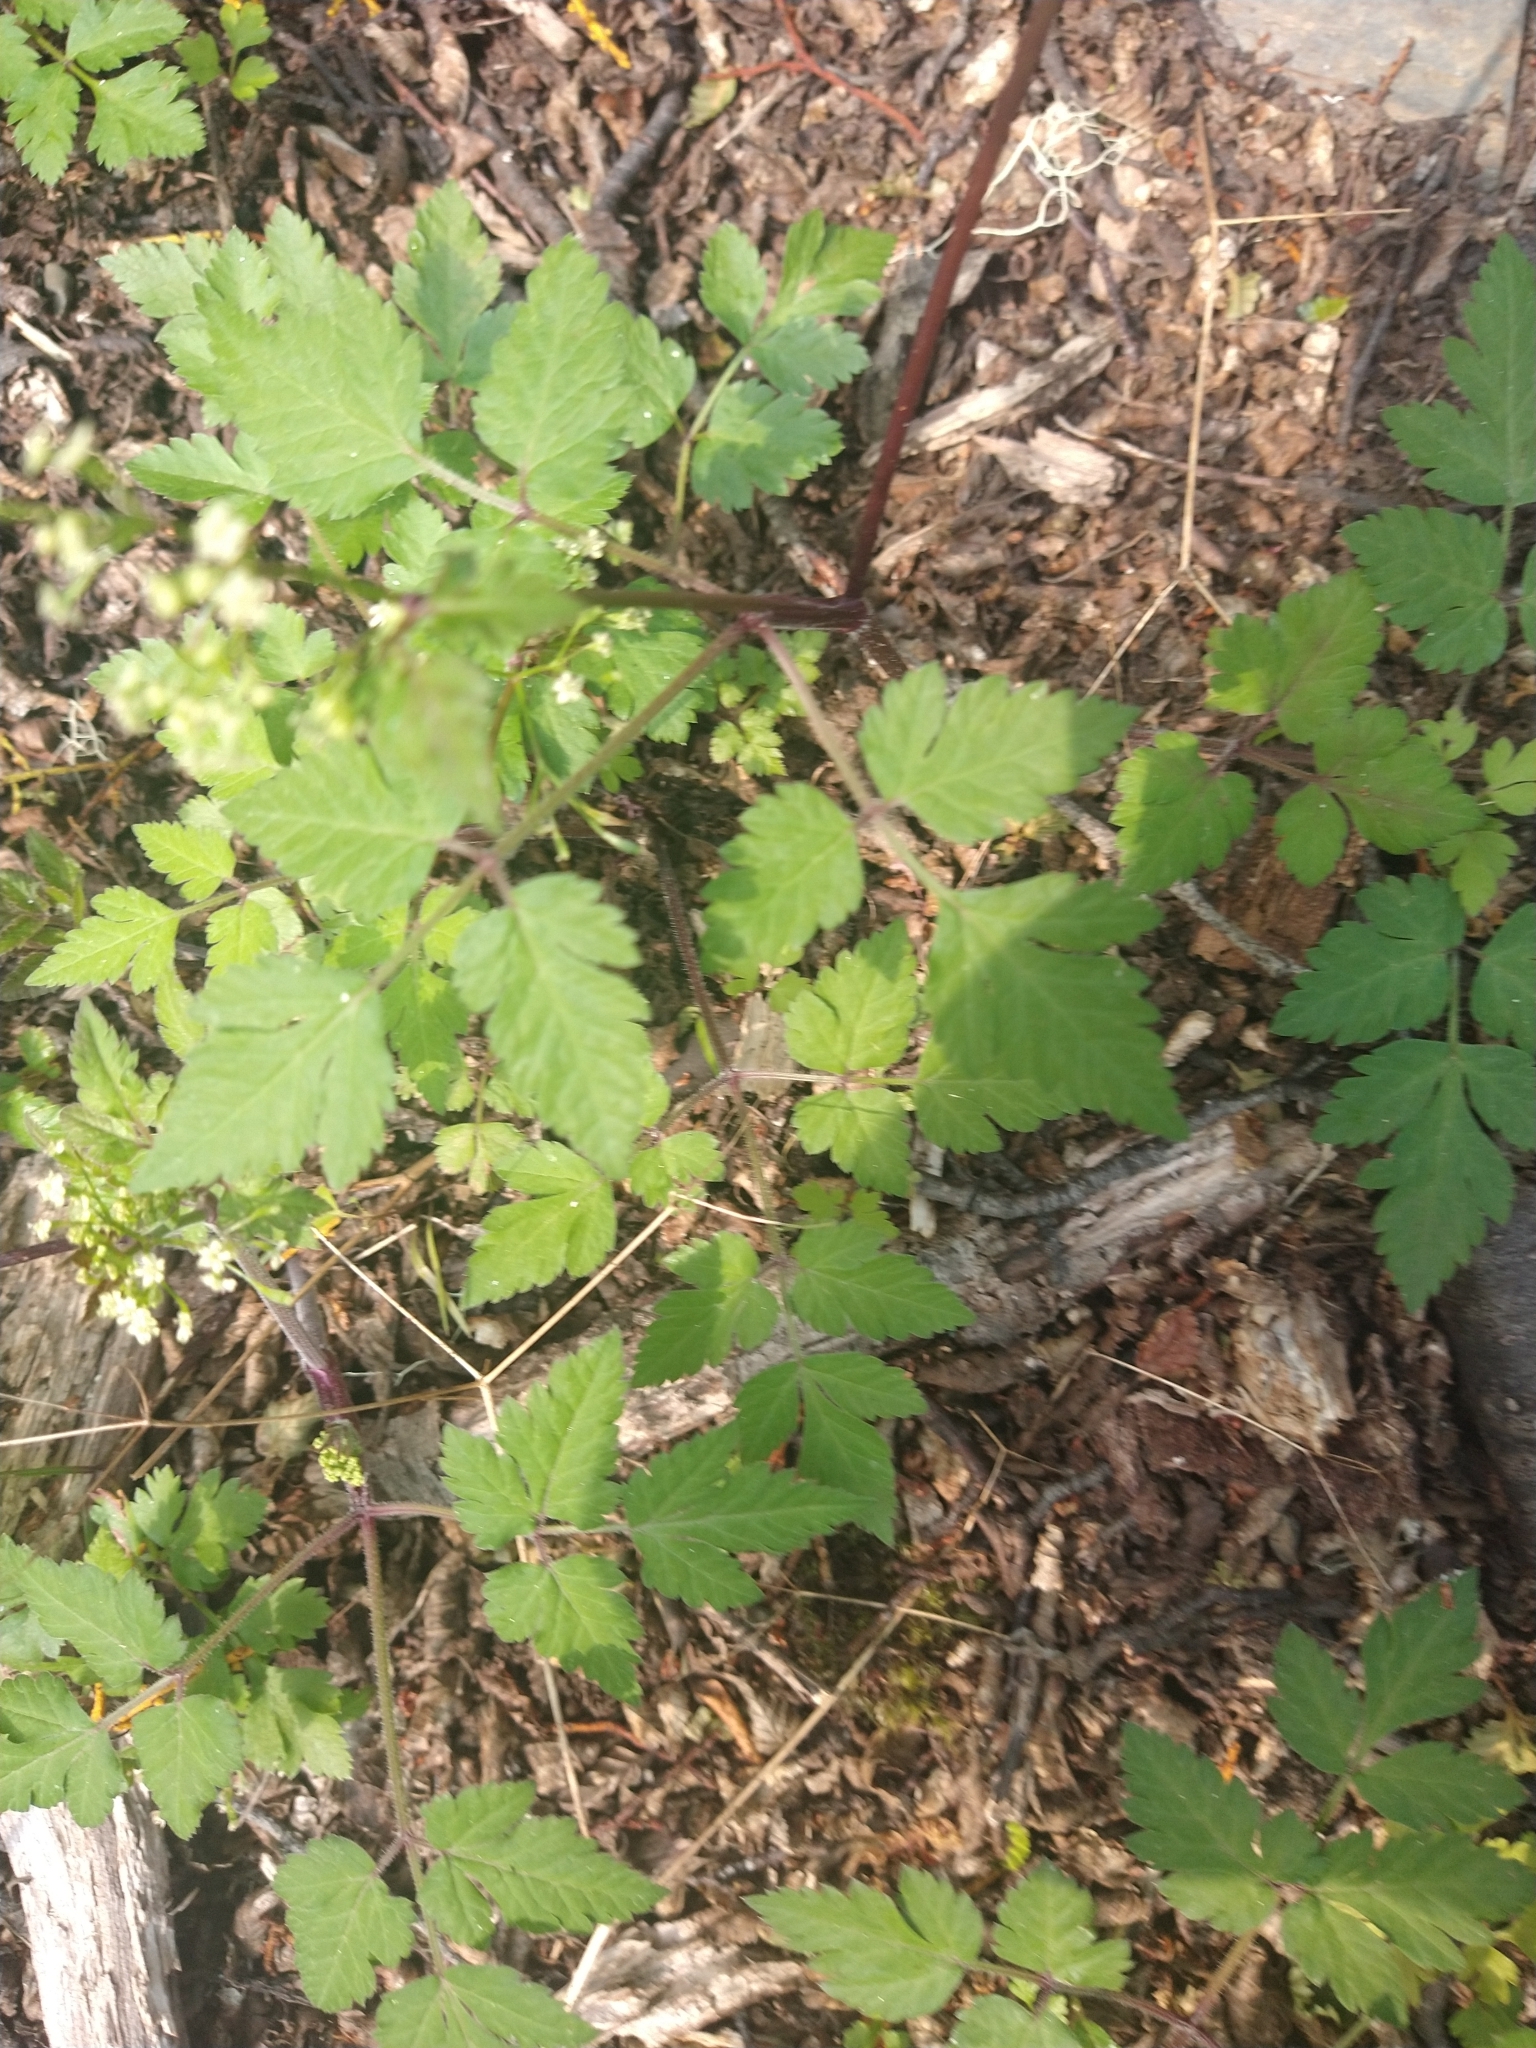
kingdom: Plantae
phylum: Tracheophyta
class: Magnoliopsida
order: Apiales
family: Apiaceae
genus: Osmorhiza
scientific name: Osmorhiza berteroi
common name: Mountain sweet cicely
